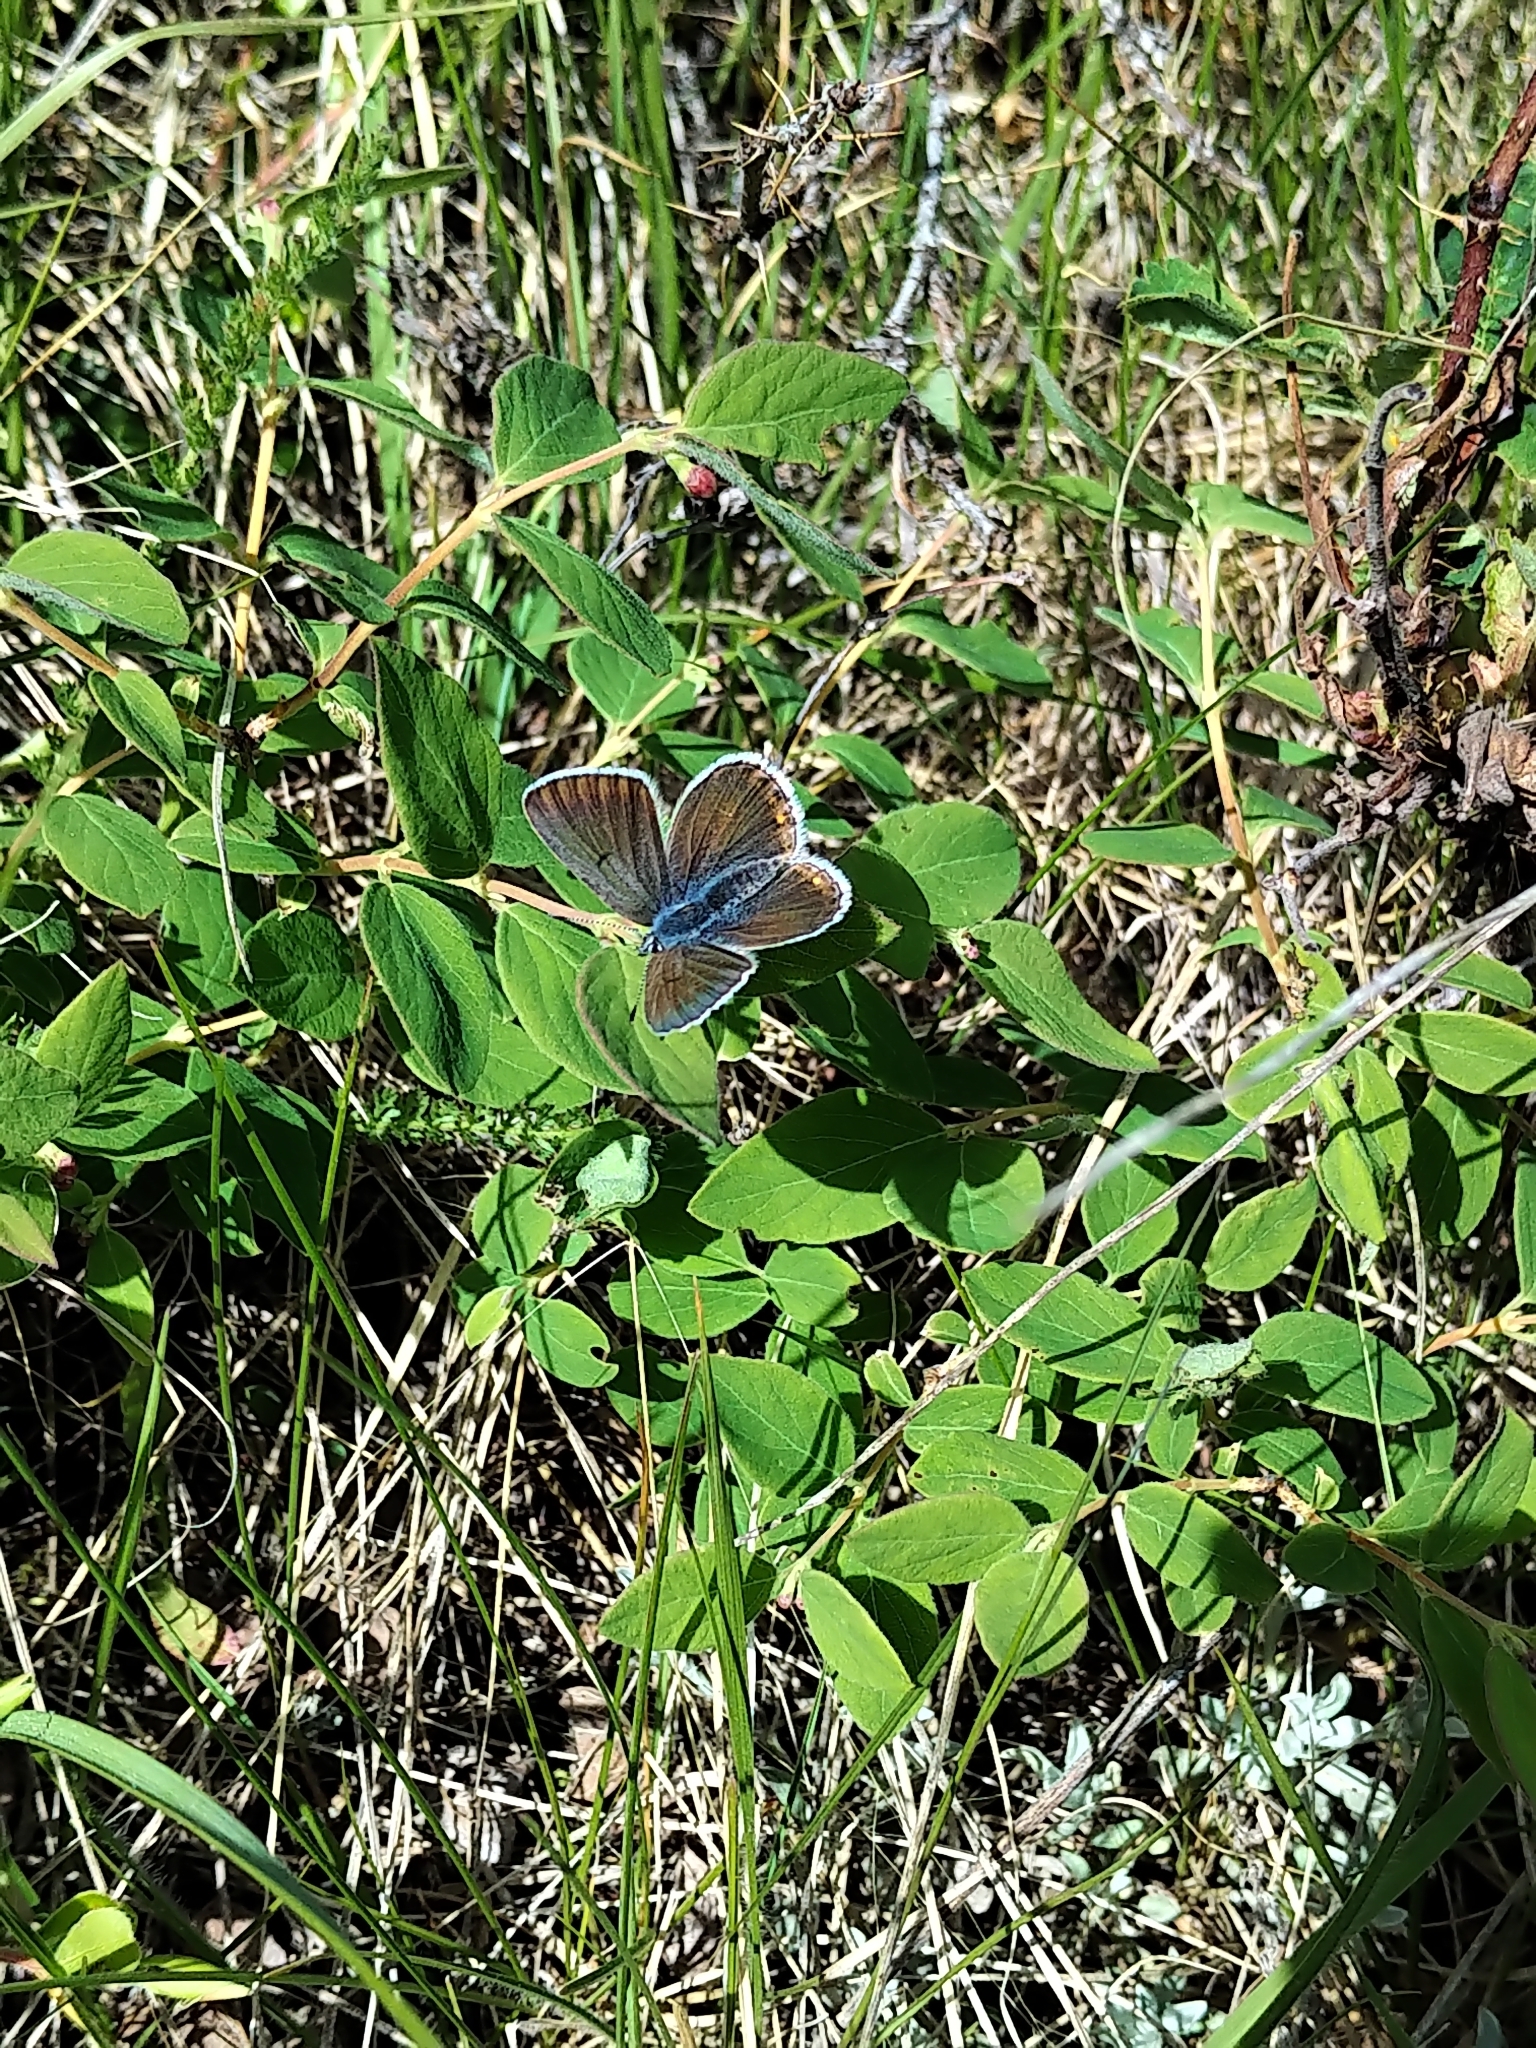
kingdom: Animalia
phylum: Arthropoda
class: Insecta
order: Lepidoptera
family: Lycaenidae
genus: Icaricia
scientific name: Icaricia saepiolus
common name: Greenish blue
